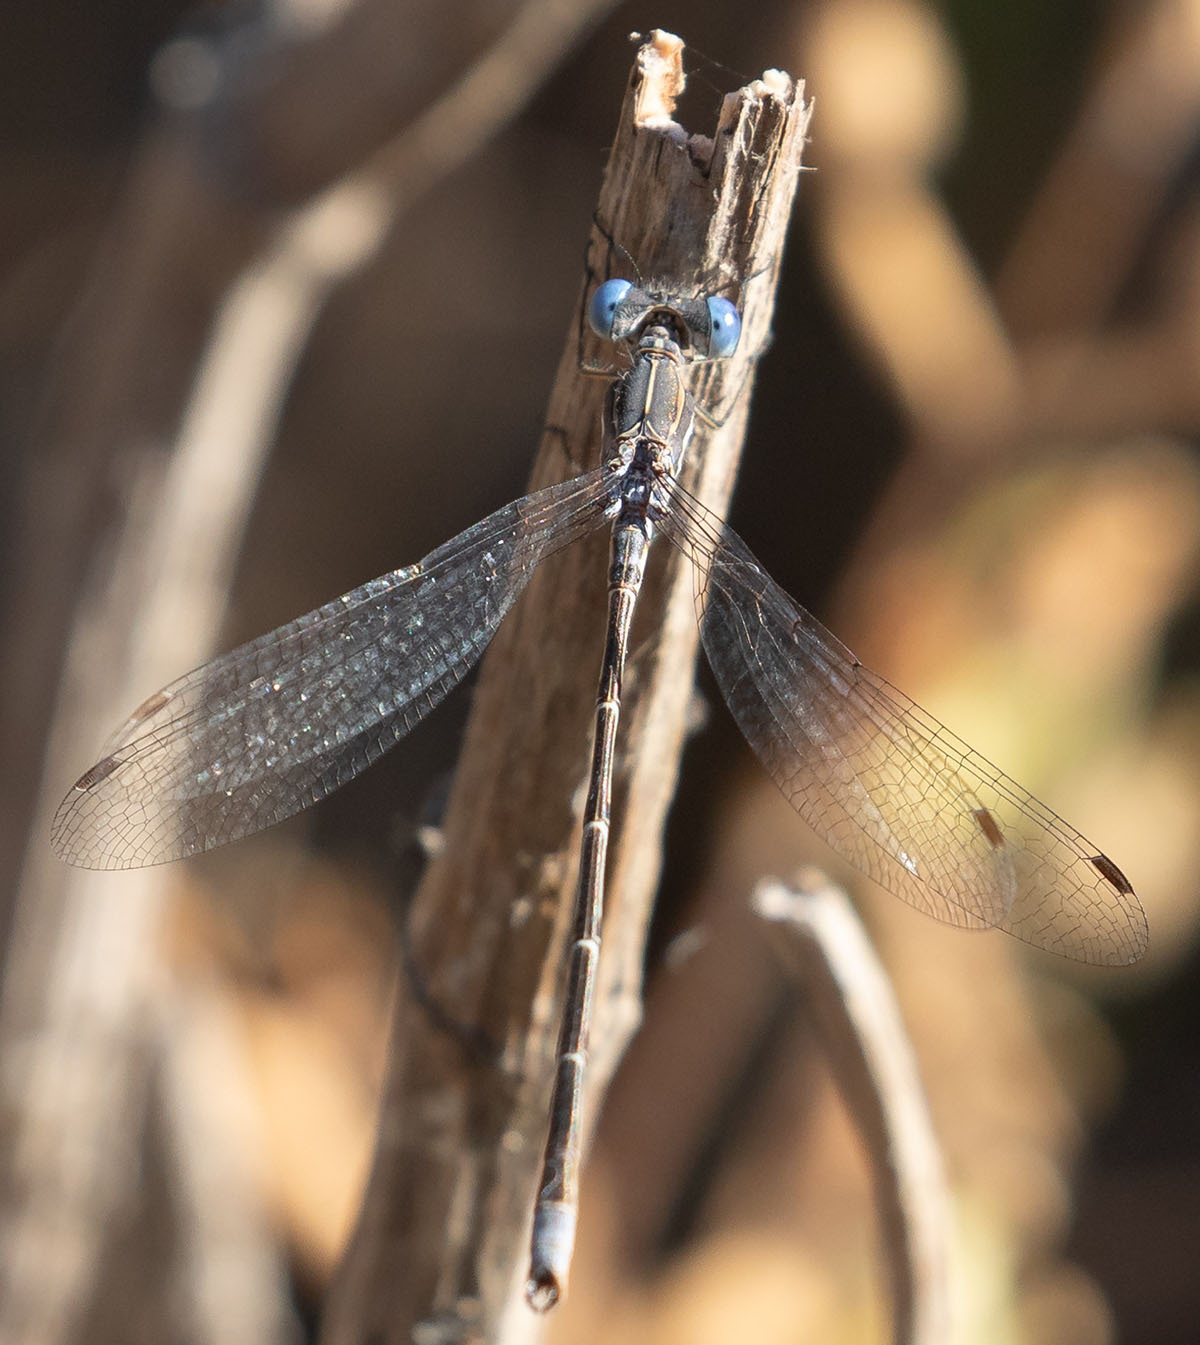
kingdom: Animalia
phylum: Arthropoda
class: Insecta
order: Odonata
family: Lestidae
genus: Lestes
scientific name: Lestes congener
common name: Spotted spreadwing
